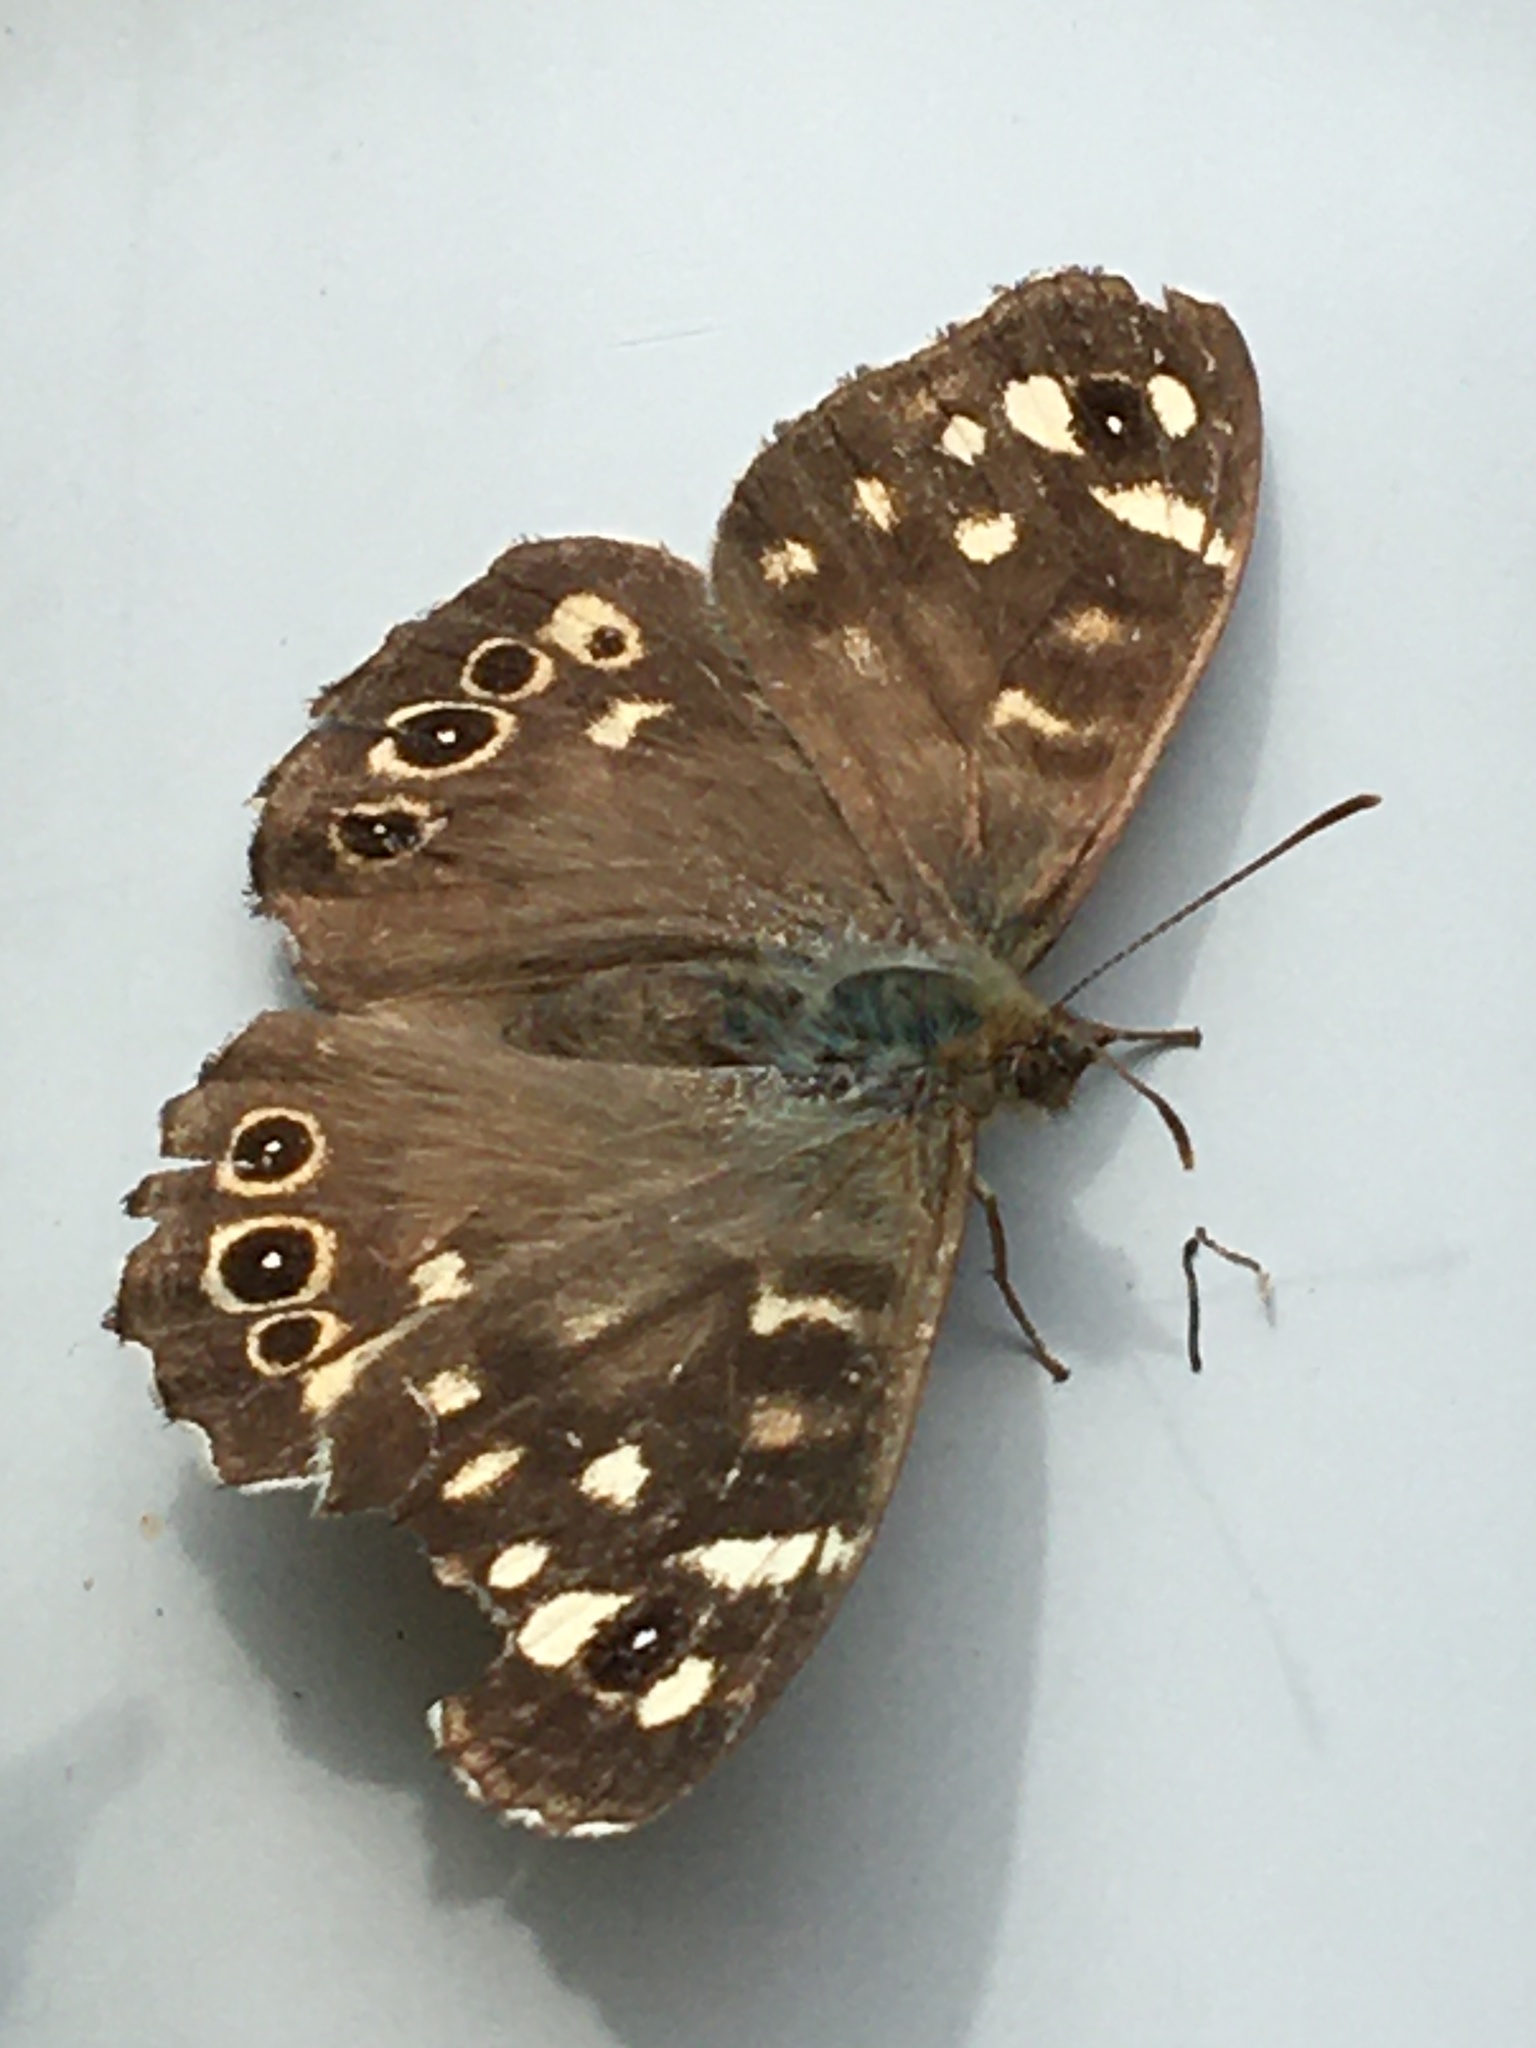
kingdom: Animalia
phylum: Arthropoda
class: Insecta
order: Lepidoptera
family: Nymphalidae
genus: Pararge
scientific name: Pararge aegeria
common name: Speckled wood
